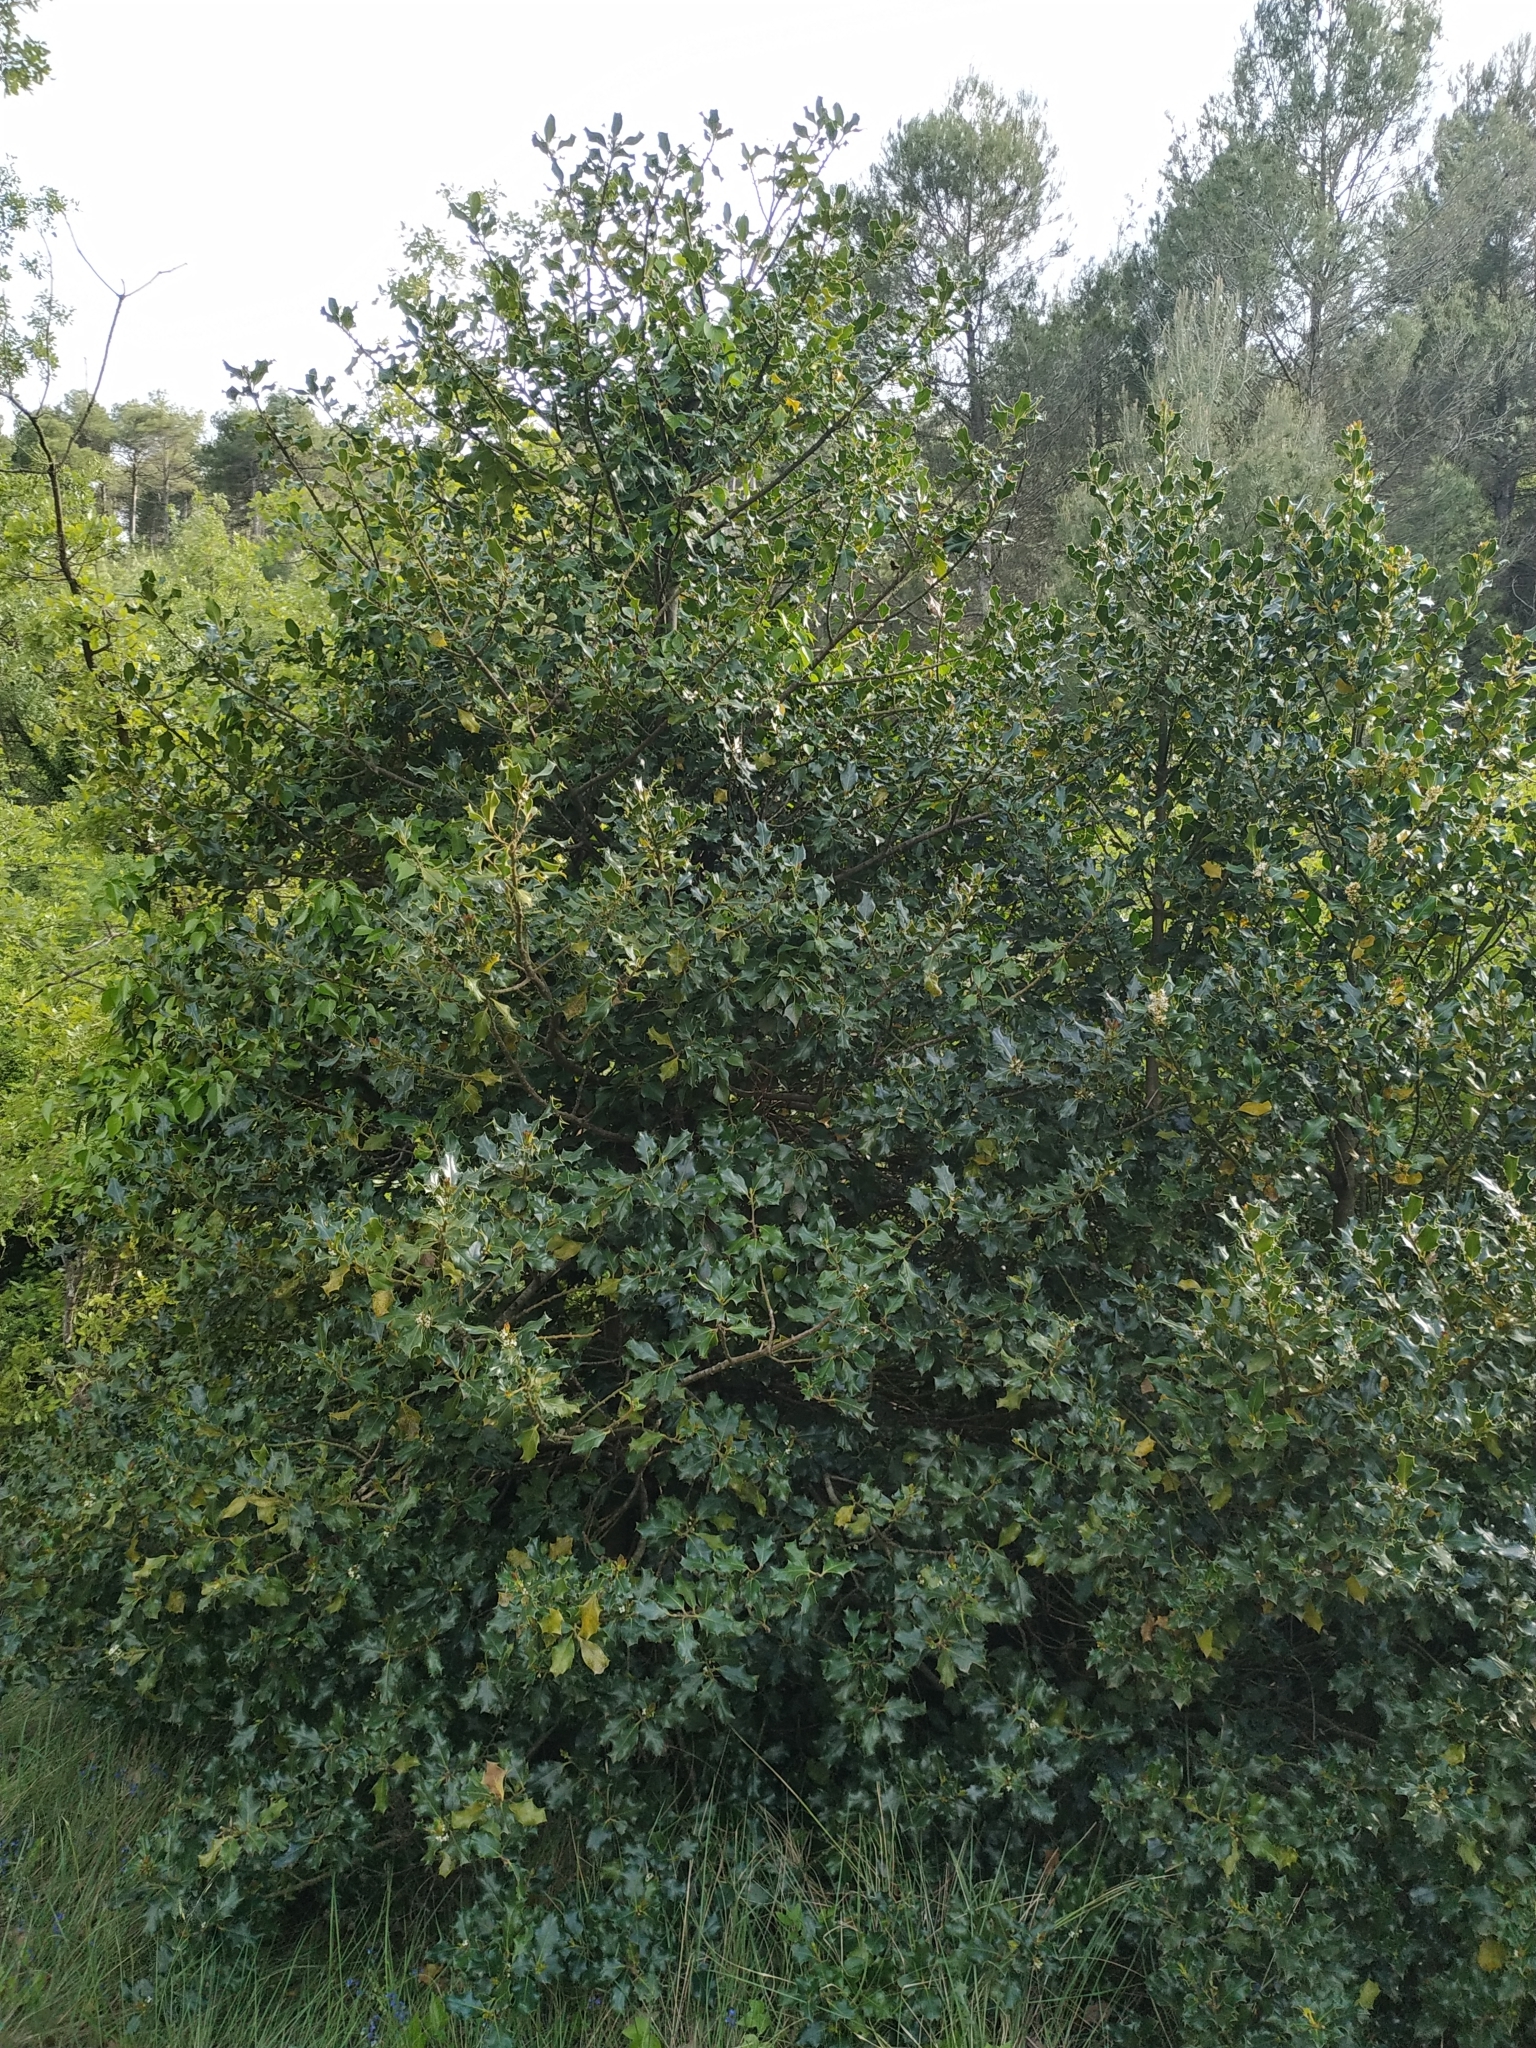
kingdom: Plantae
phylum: Tracheophyta
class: Magnoliopsida
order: Aquifoliales
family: Aquifoliaceae
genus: Ilex
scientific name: Ilex aquifolium
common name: English holly
